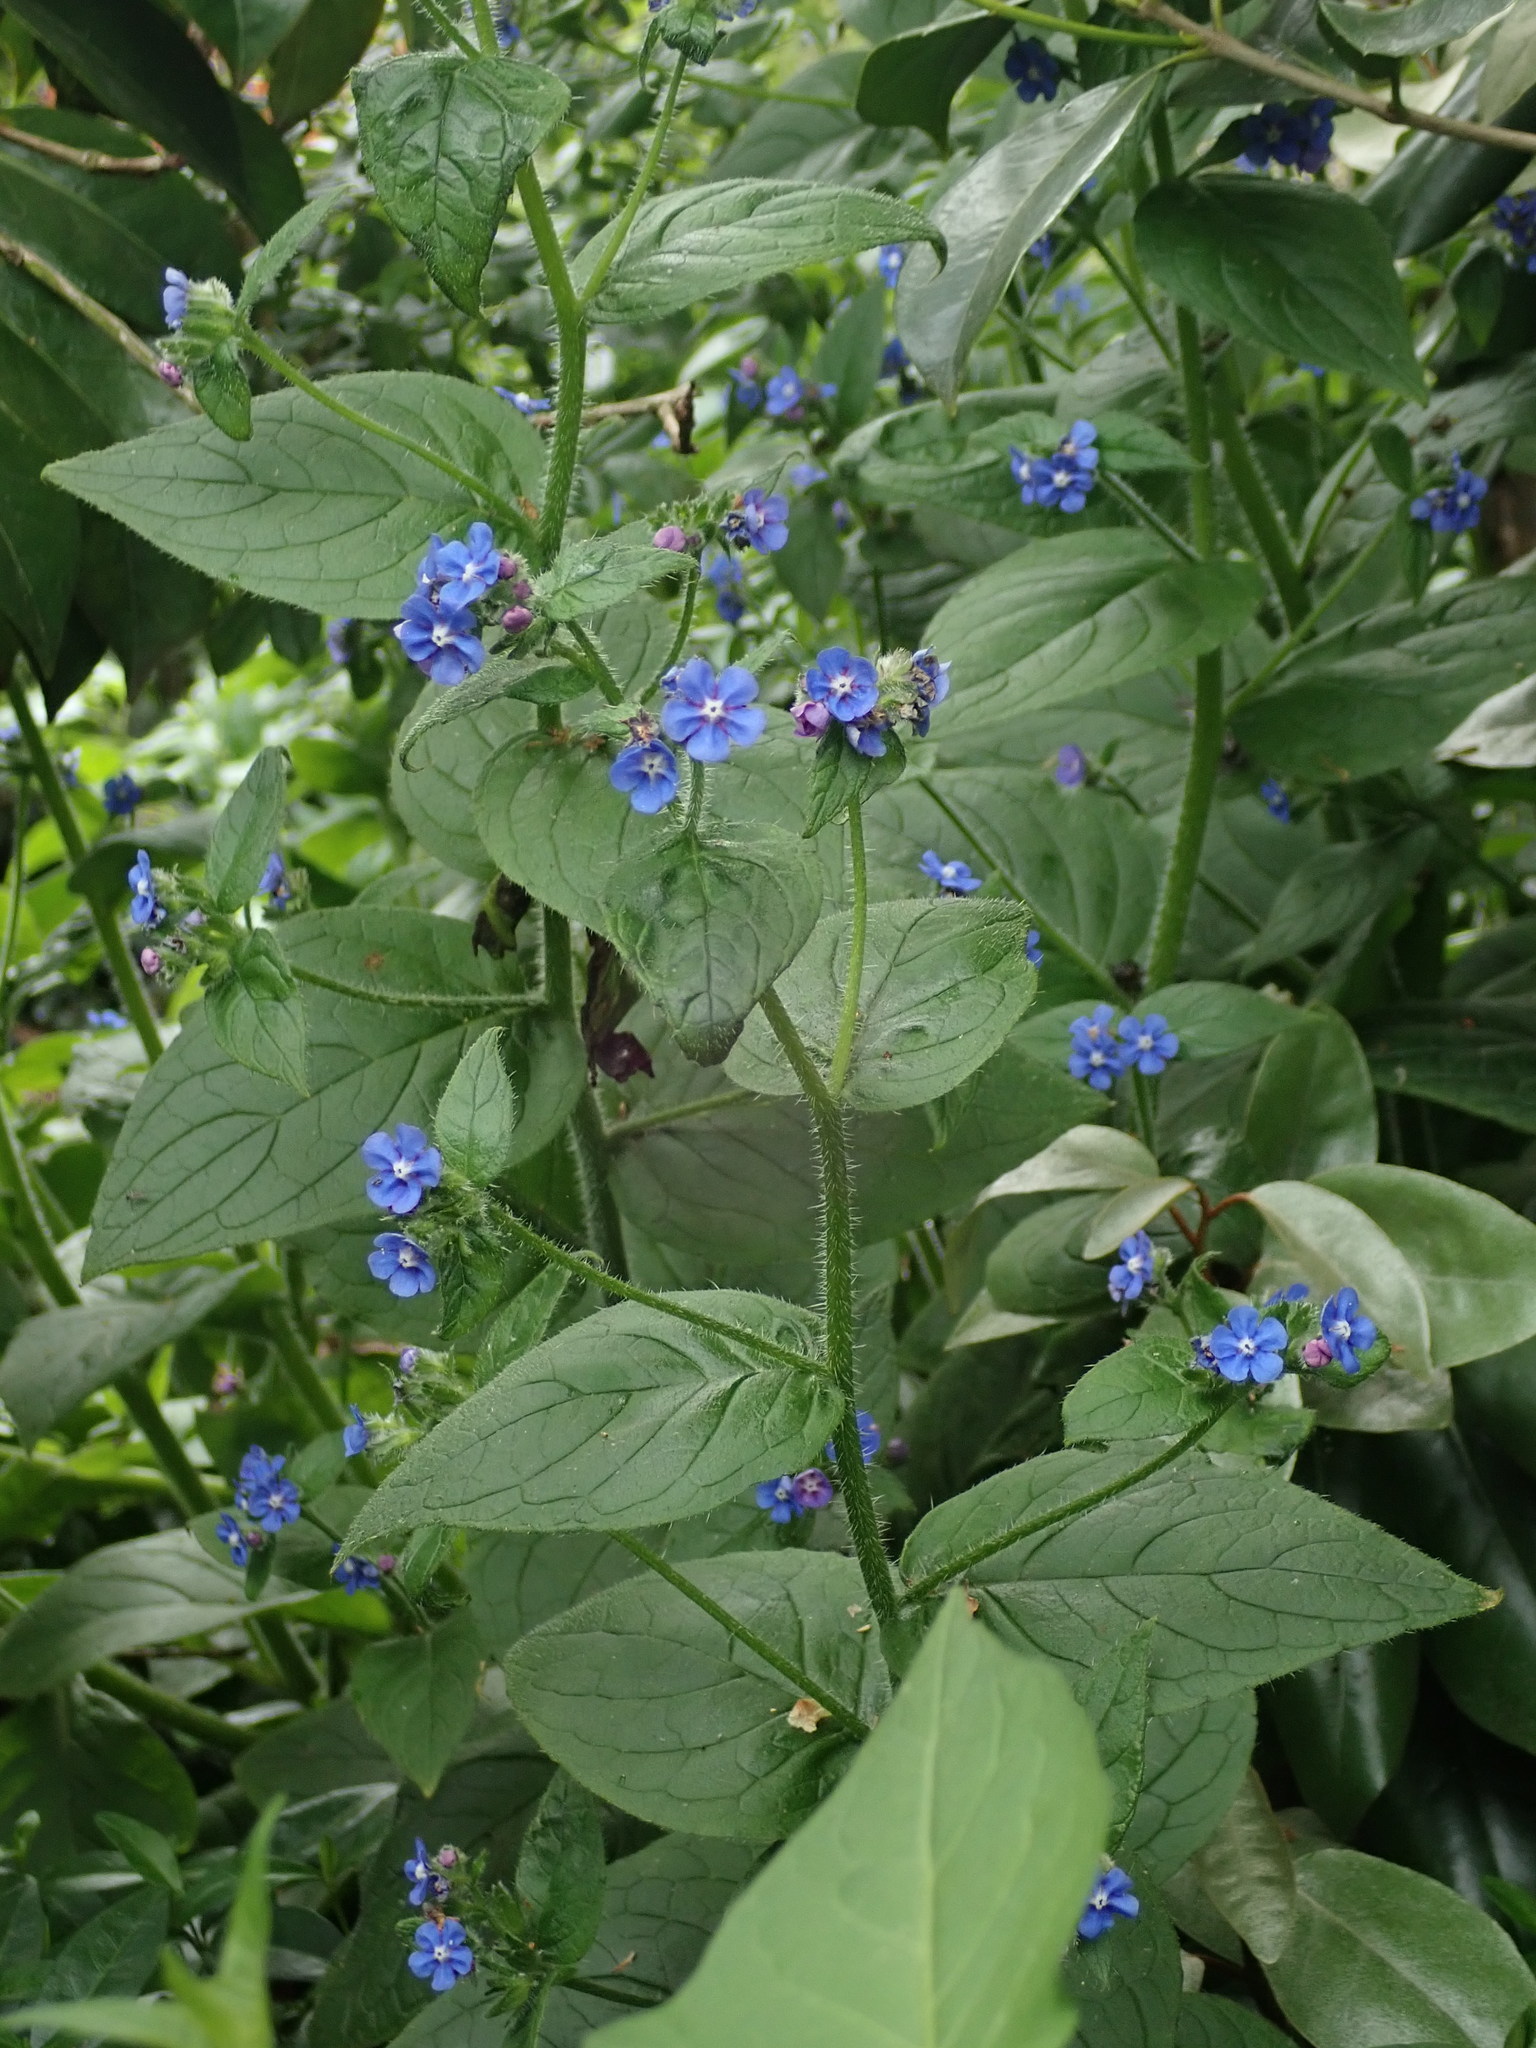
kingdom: Plantae
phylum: Tracheophyta
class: Magnoliopsida
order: Boraginales
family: Boraginaceae
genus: Pentaglottis
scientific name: Pentaglottis sempervirens
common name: Green alkanet
